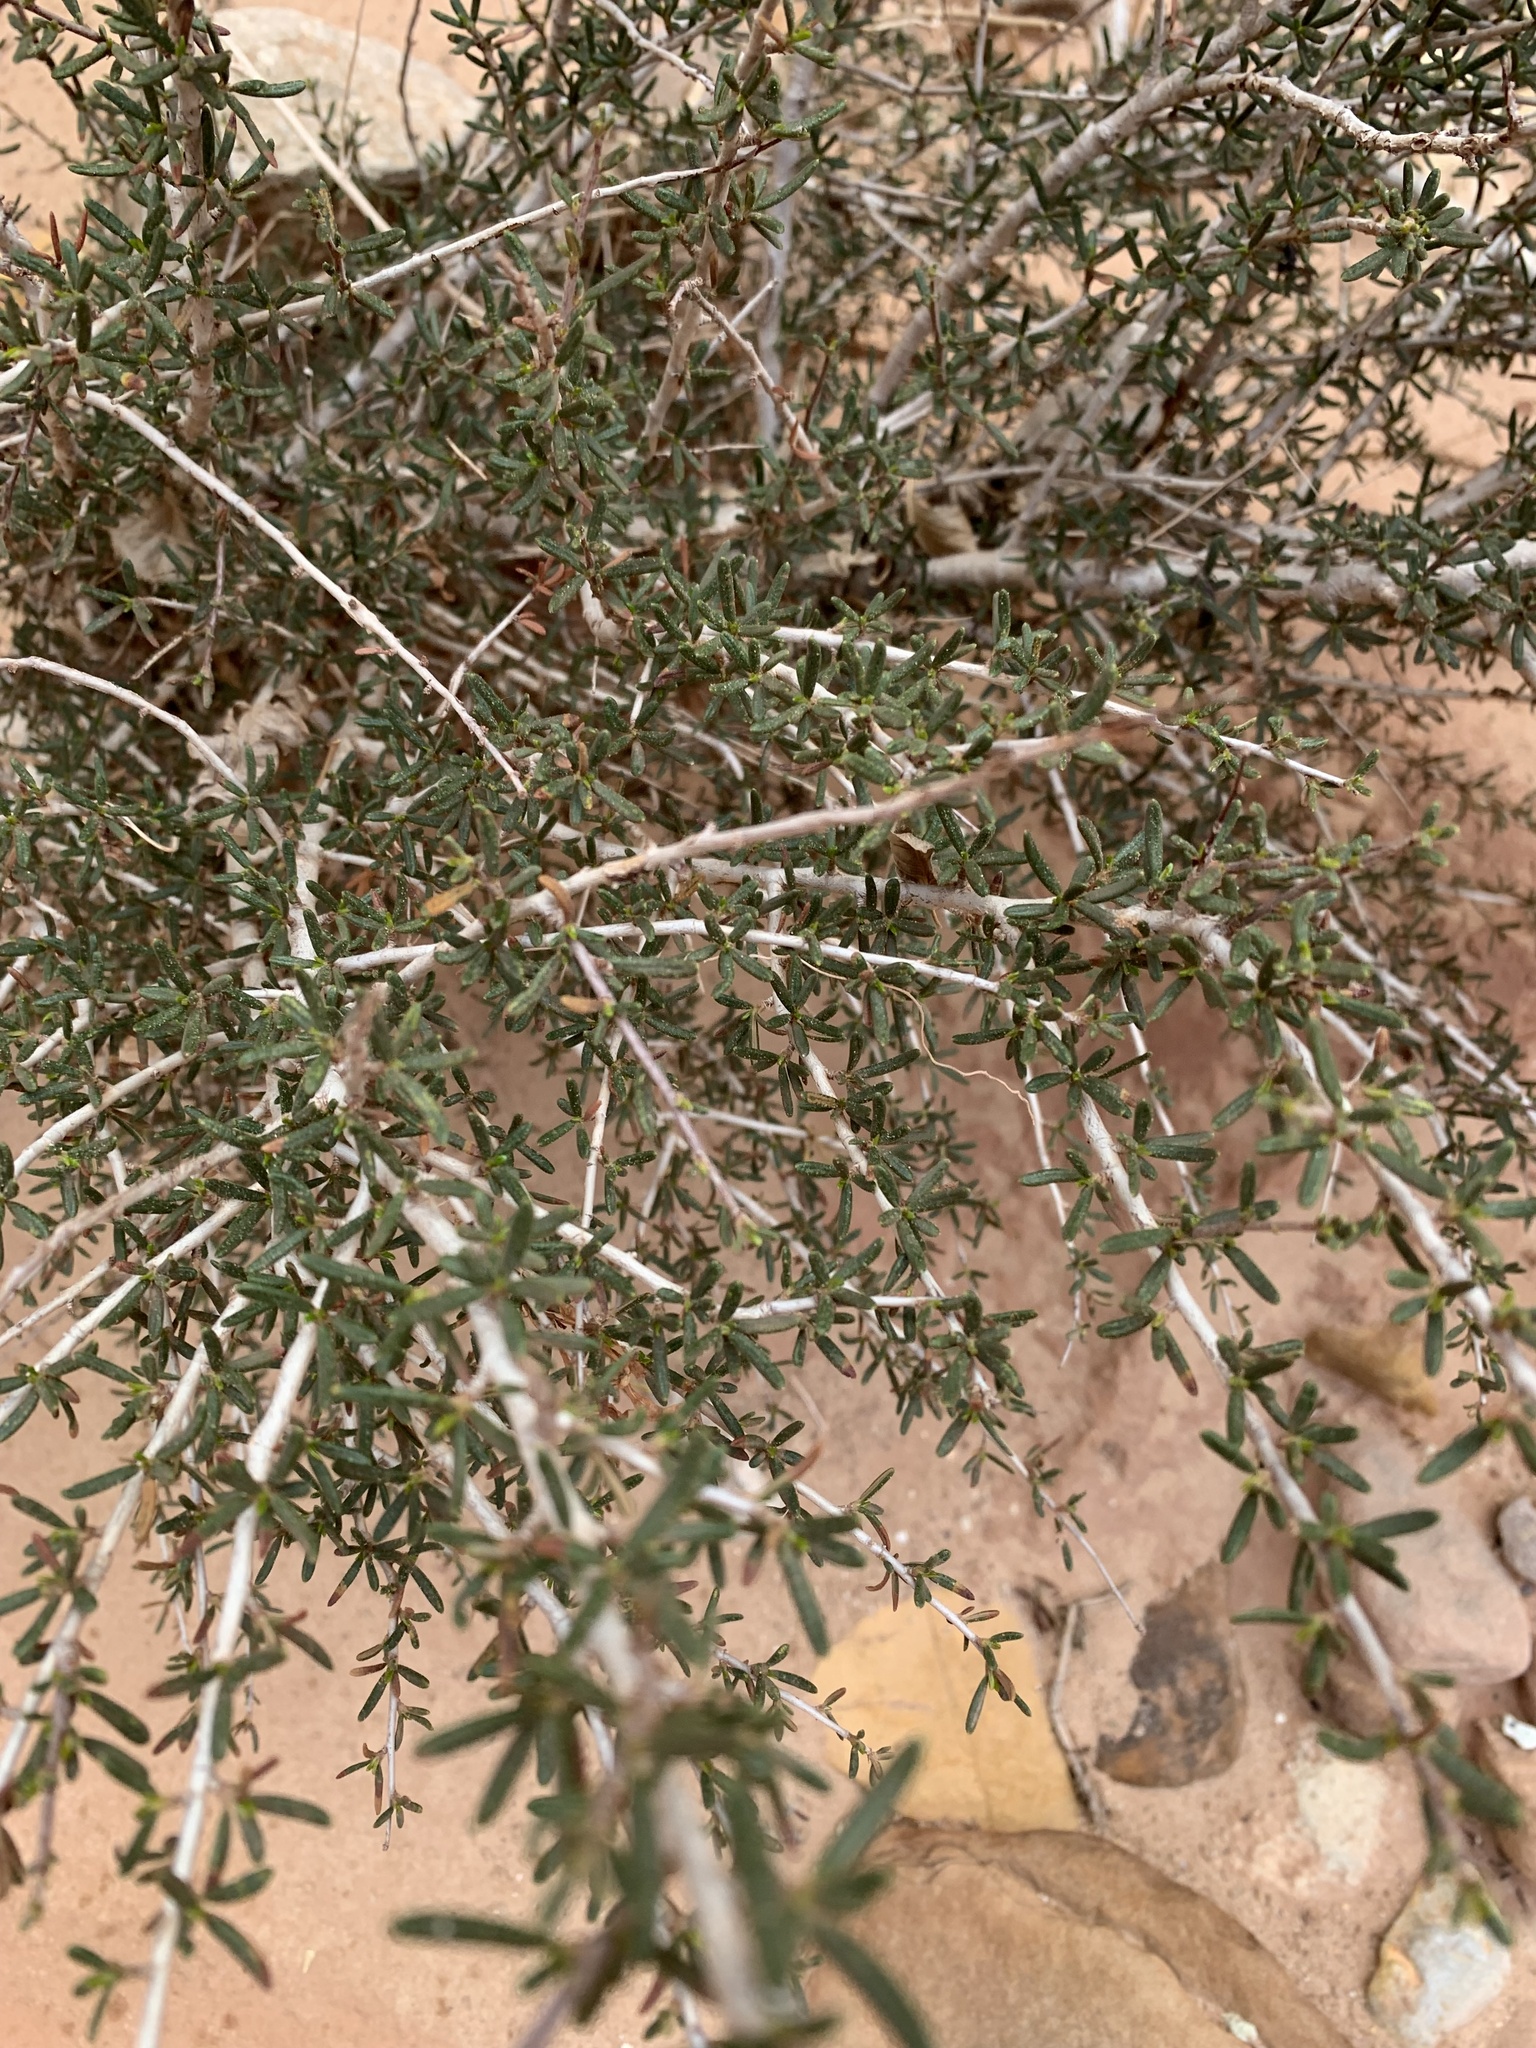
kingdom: Plantae
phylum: Tracheophyta
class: Magnoliopsida
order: Rosales
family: Rosaceae
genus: Cercocarpus
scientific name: Cercocarpus intricatus
